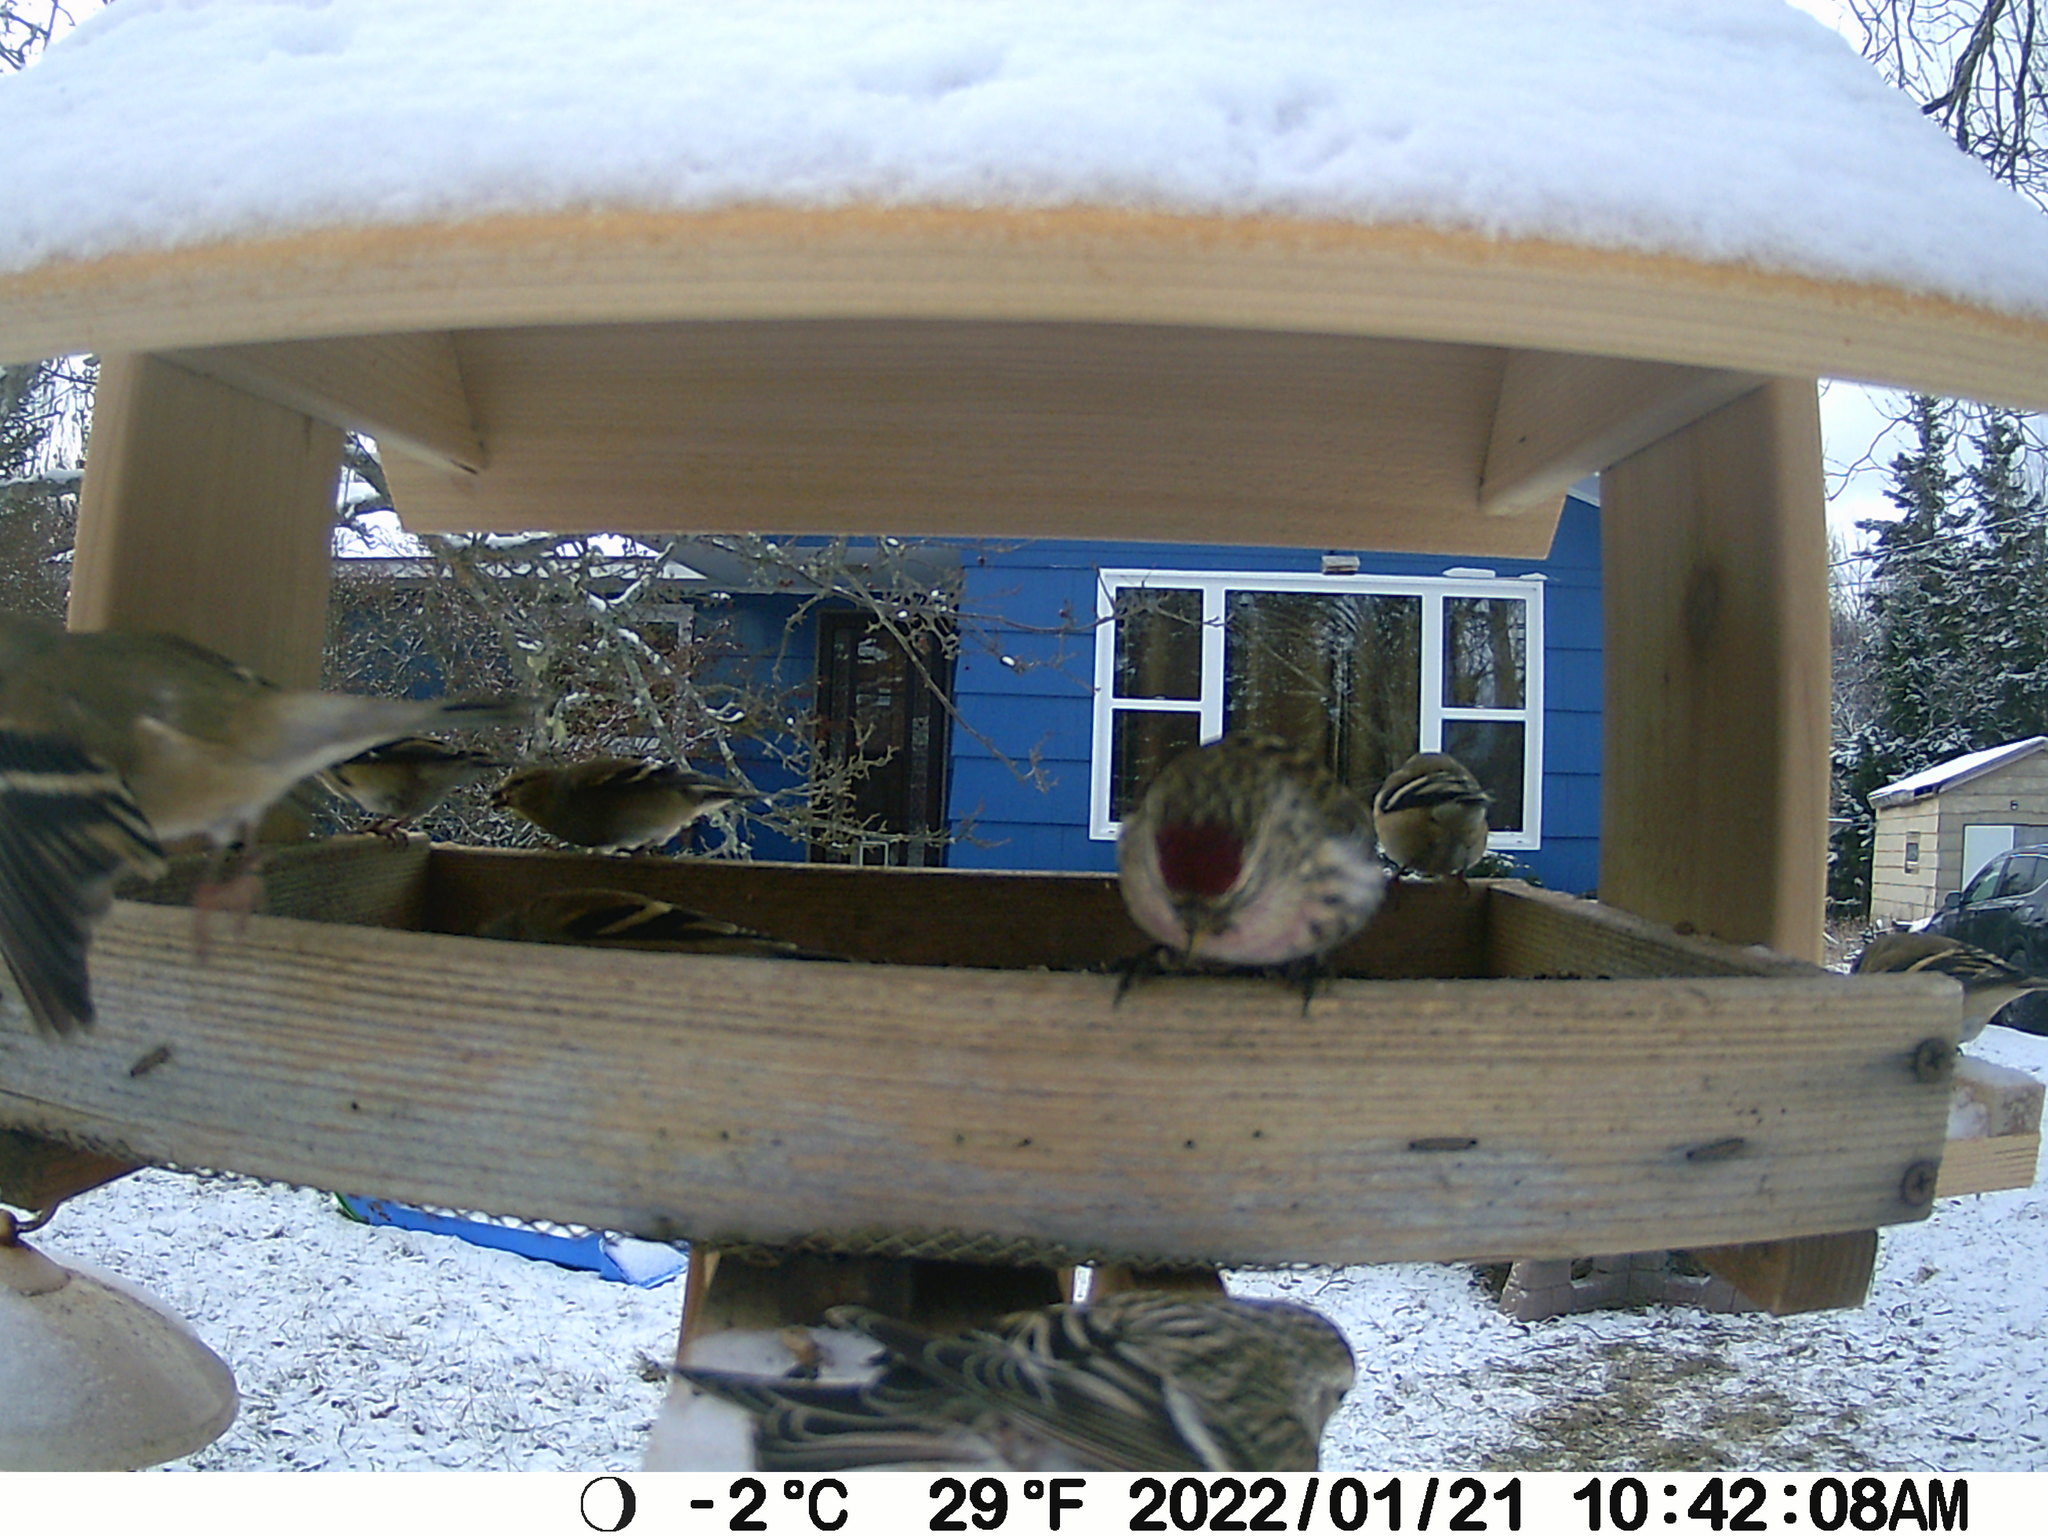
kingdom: Animalia
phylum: Chordata
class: Aves
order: Passeriformes
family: Fringillidae
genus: Acanthis
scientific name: Acanthis flammea
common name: Common redpoll
